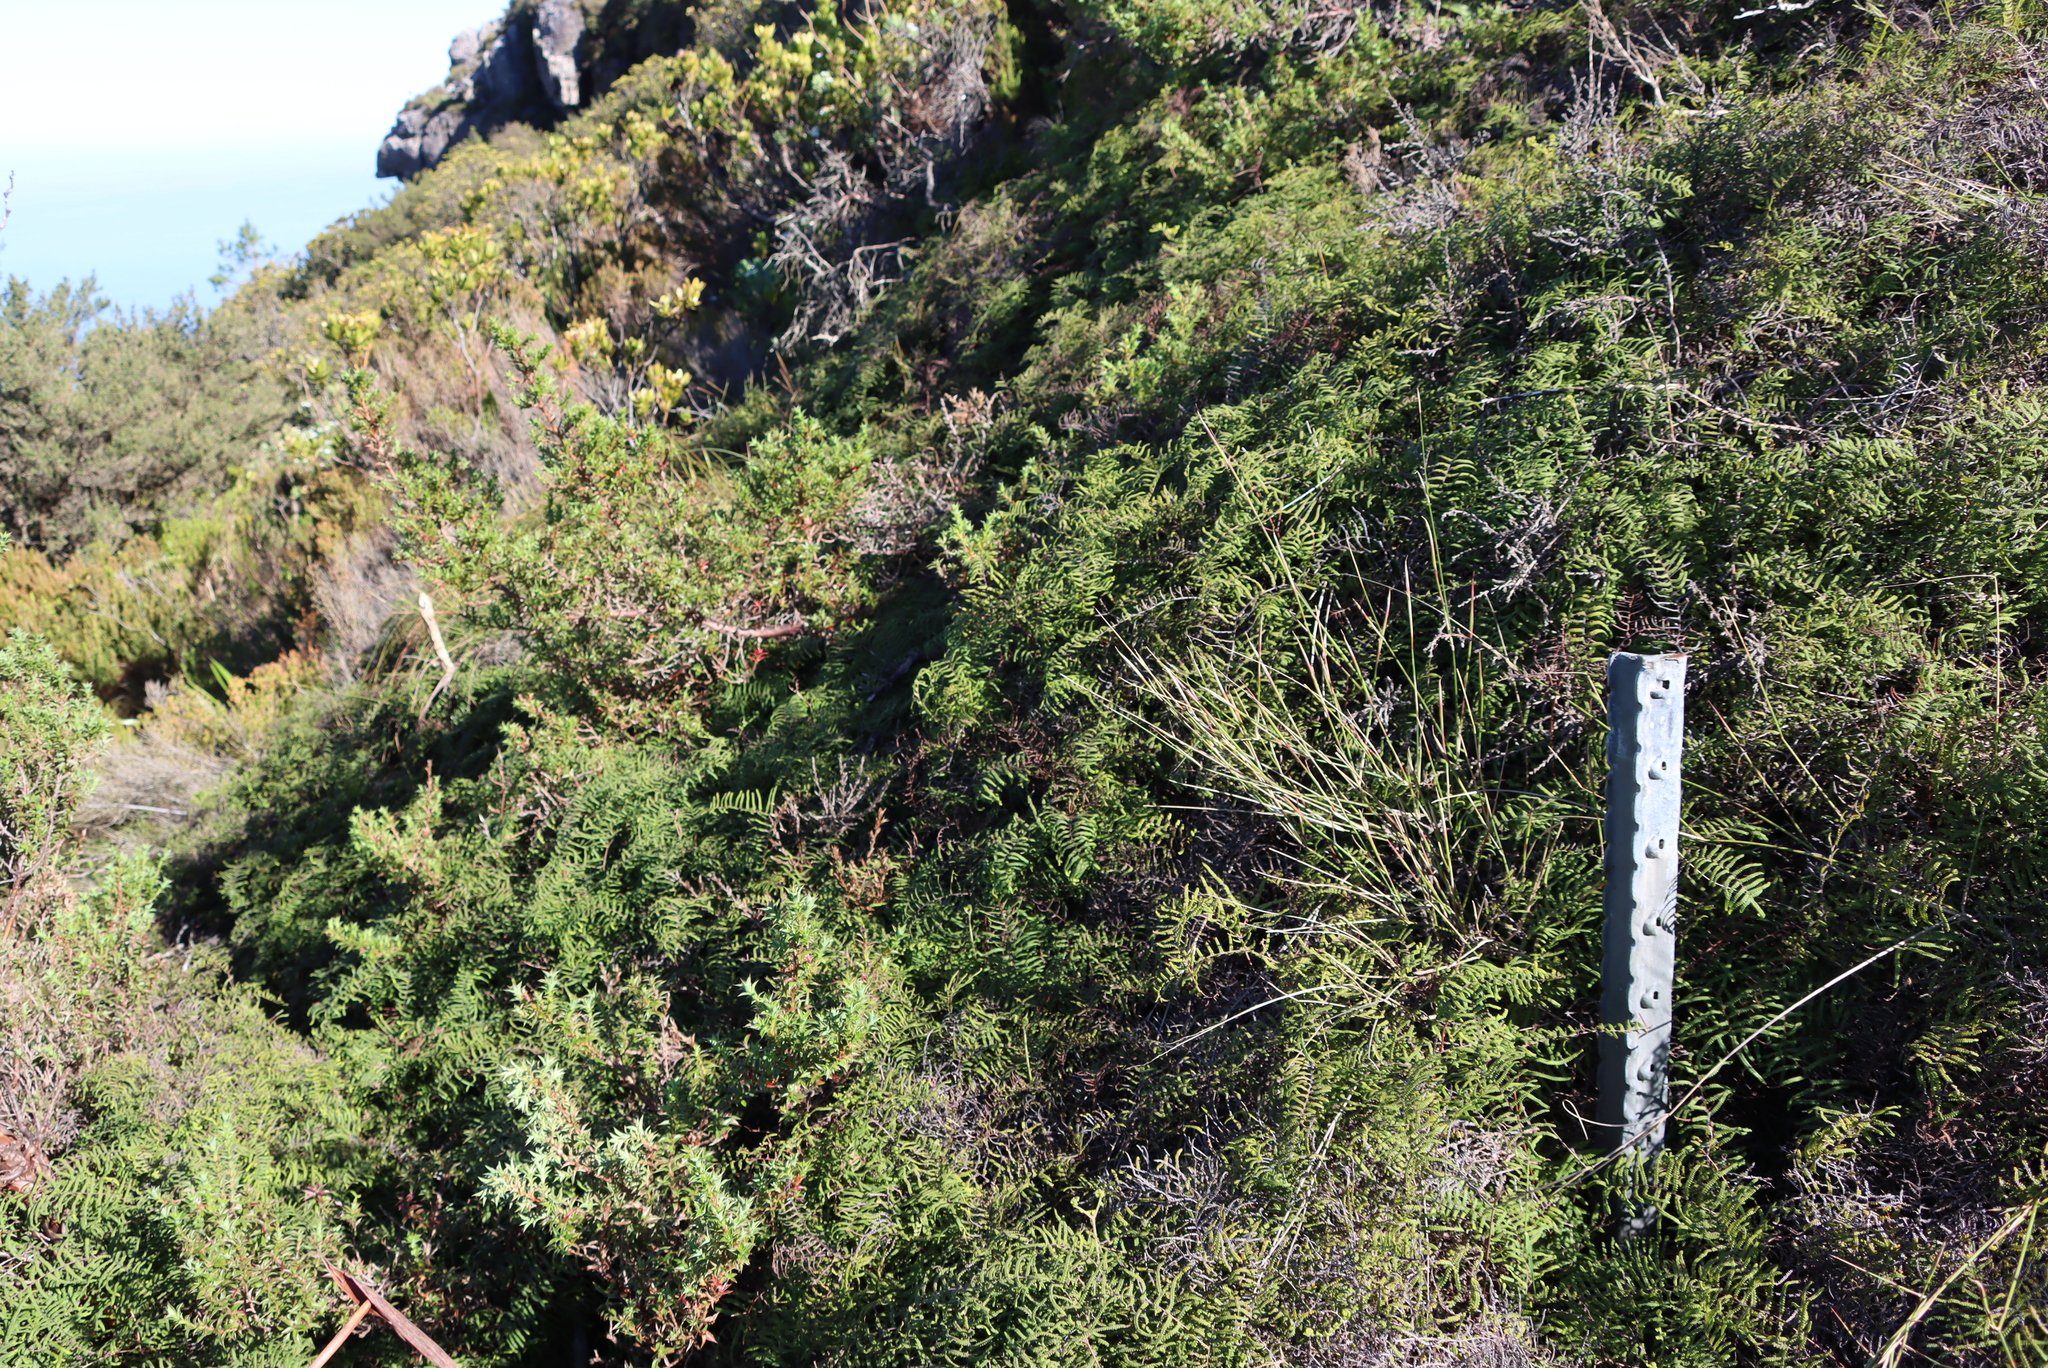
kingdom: Plantae
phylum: Tracheophyta
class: Polypodiopsida
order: Gleicheniales
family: Gleicheniaceae
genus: Gleichenia
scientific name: Gleichenia polypodioides
